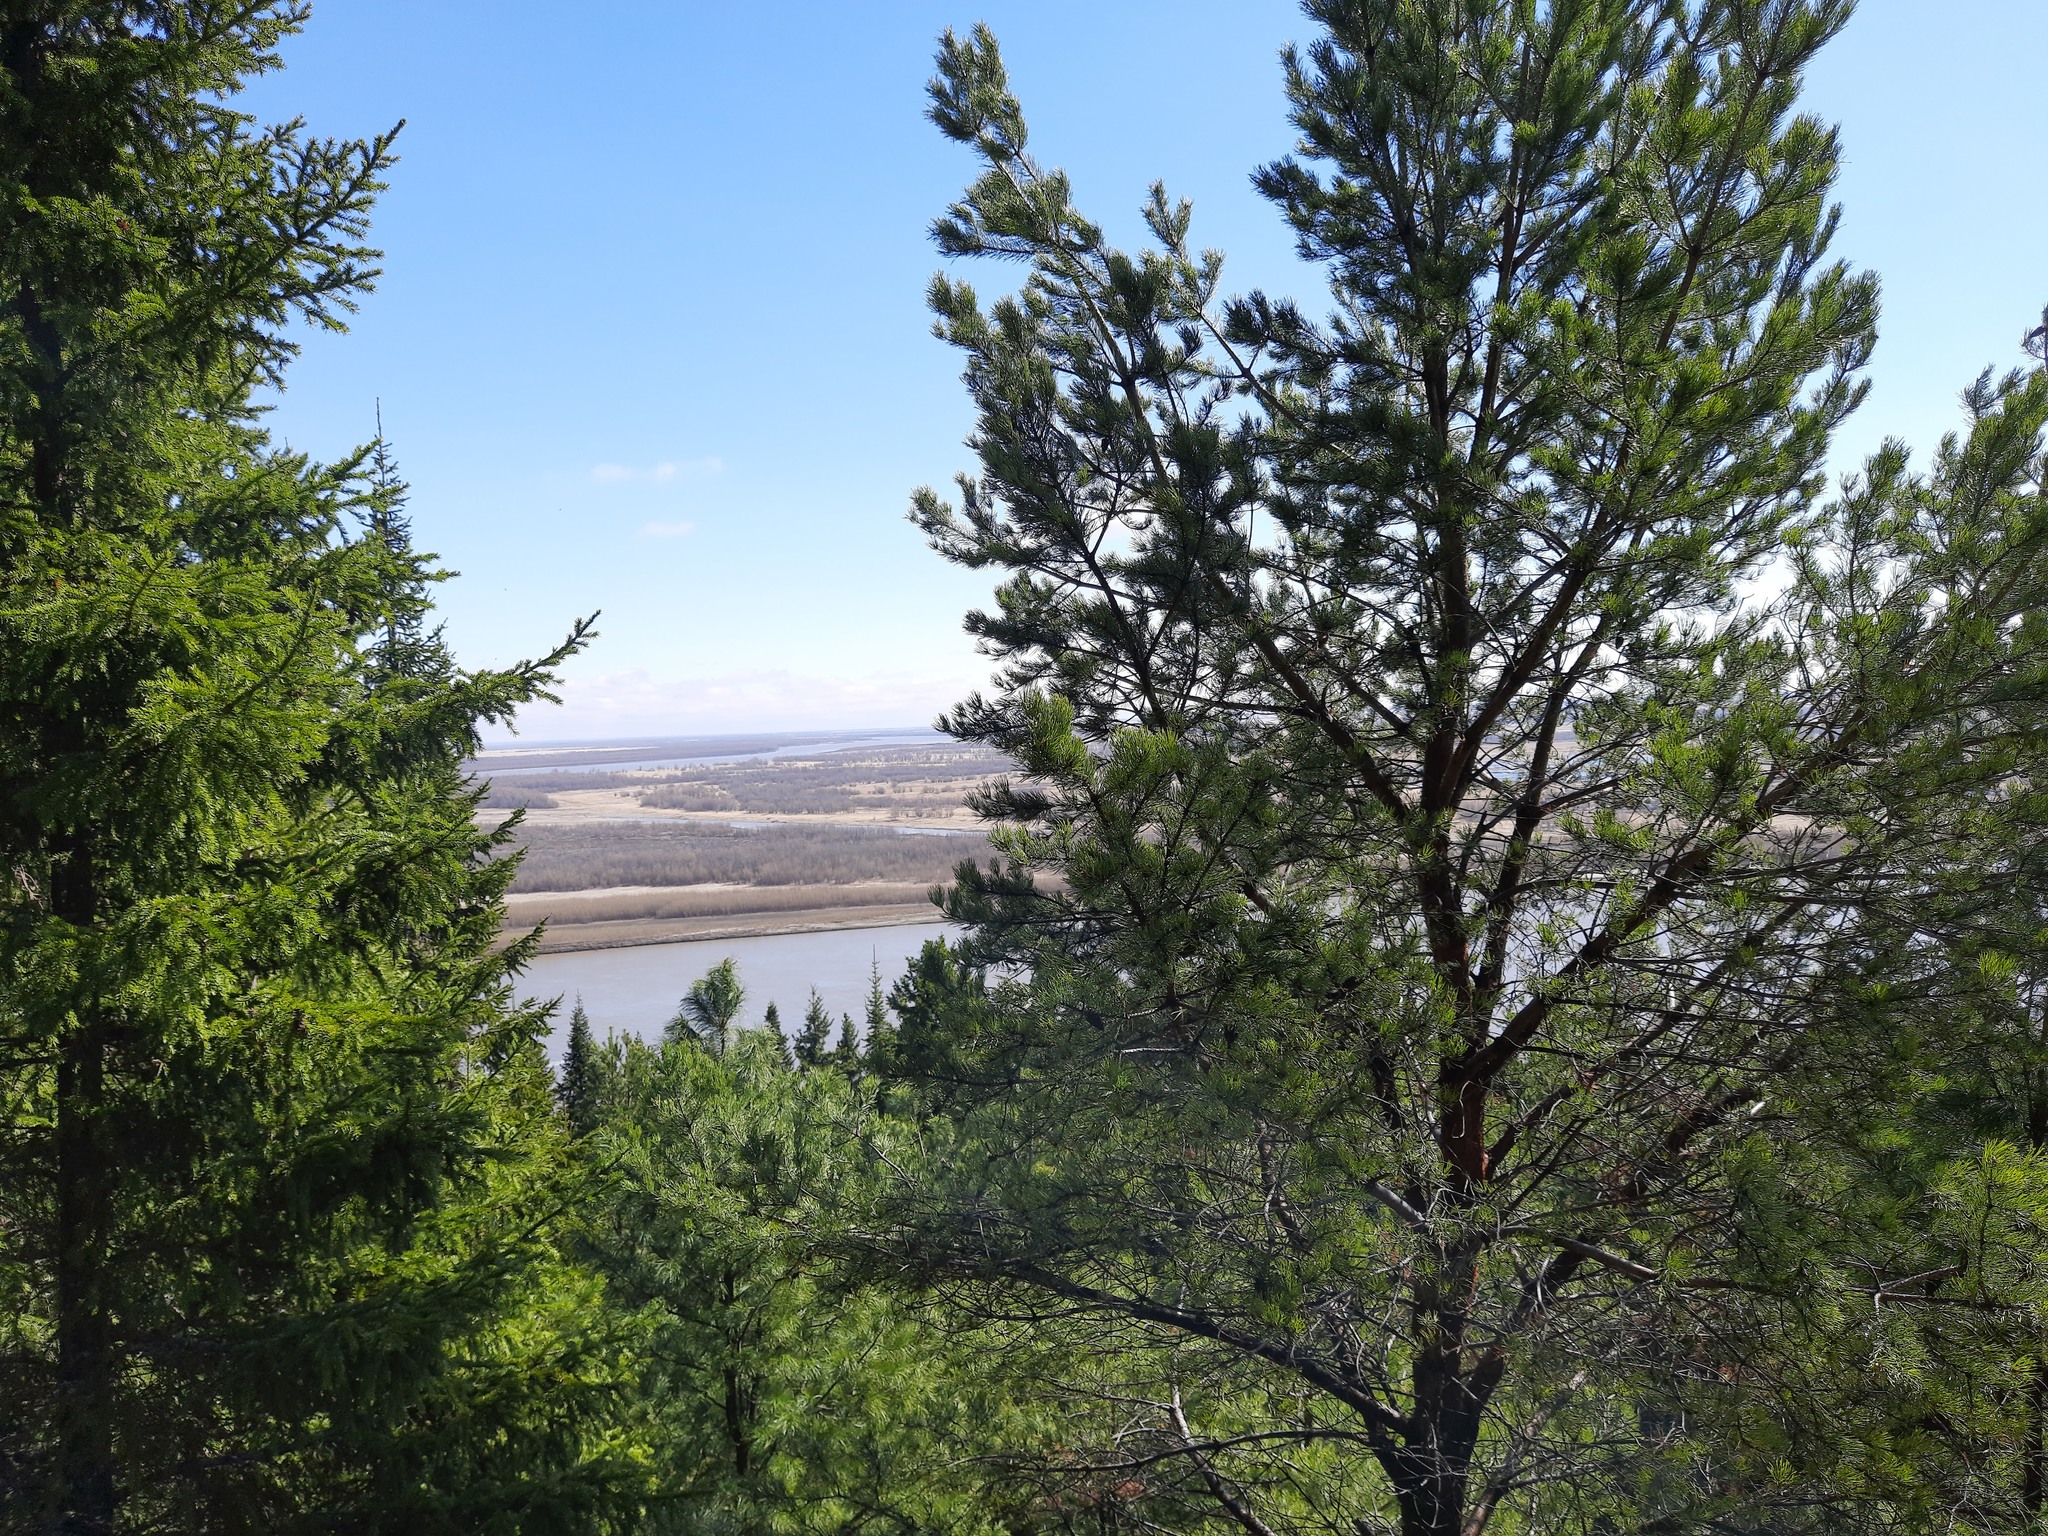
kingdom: Plantae
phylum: Tracheophyta
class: Pinopsida
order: Pinales
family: Pinaceae
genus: Pinus
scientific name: Pinus sylvestris
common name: Scots pine
